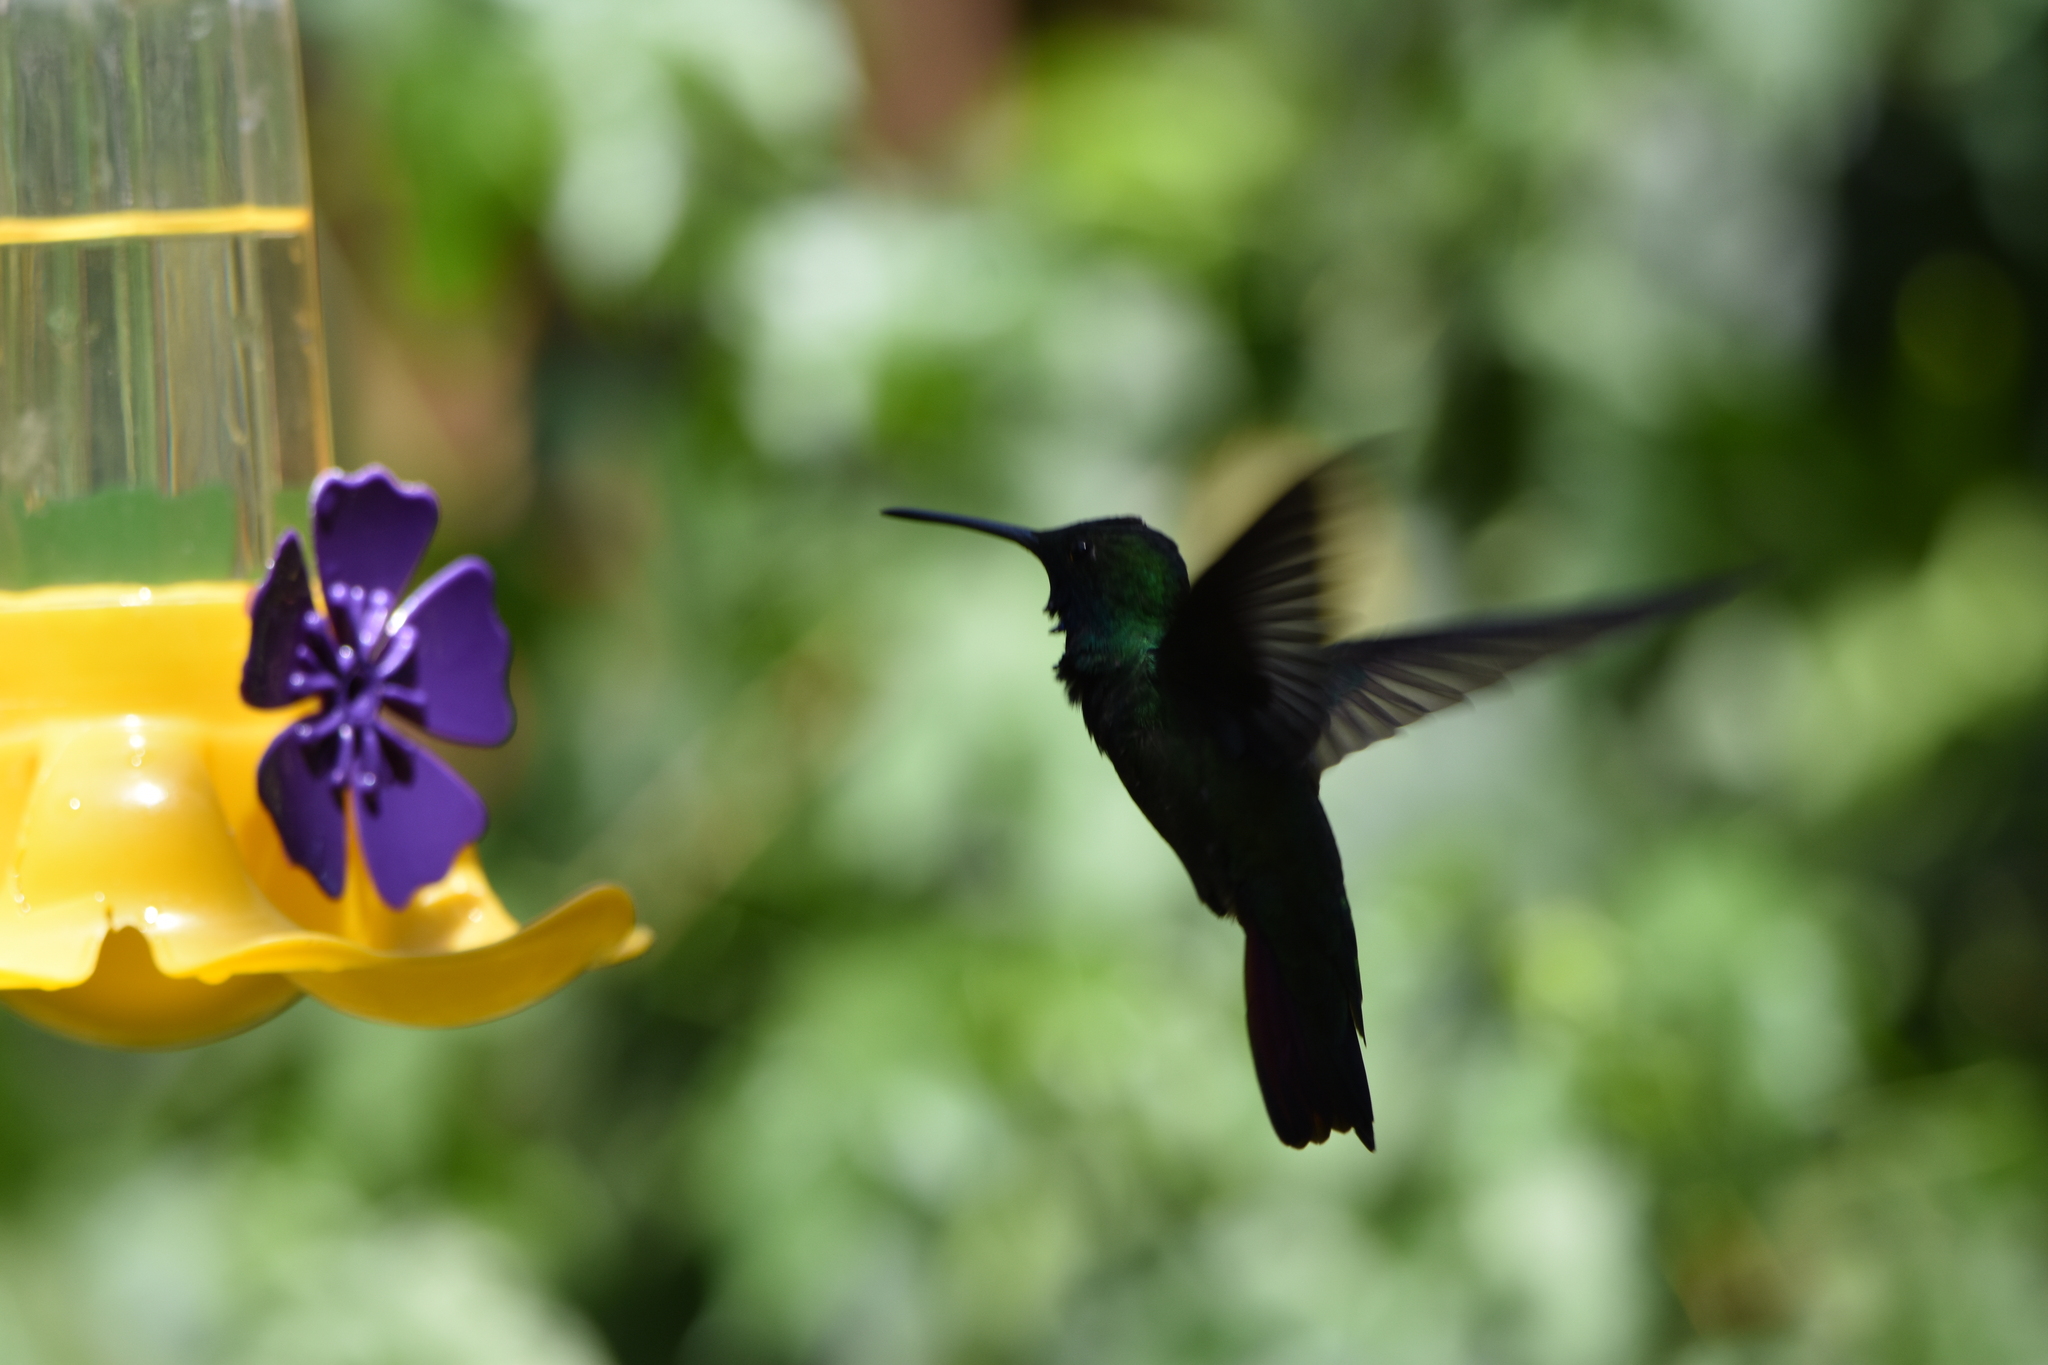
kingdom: Animalia
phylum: Chordata
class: Aves
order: Apodiformes
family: Trochilidae
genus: Anthracothorax
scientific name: Anthracothorax nigricollis
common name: Black-throated mango
